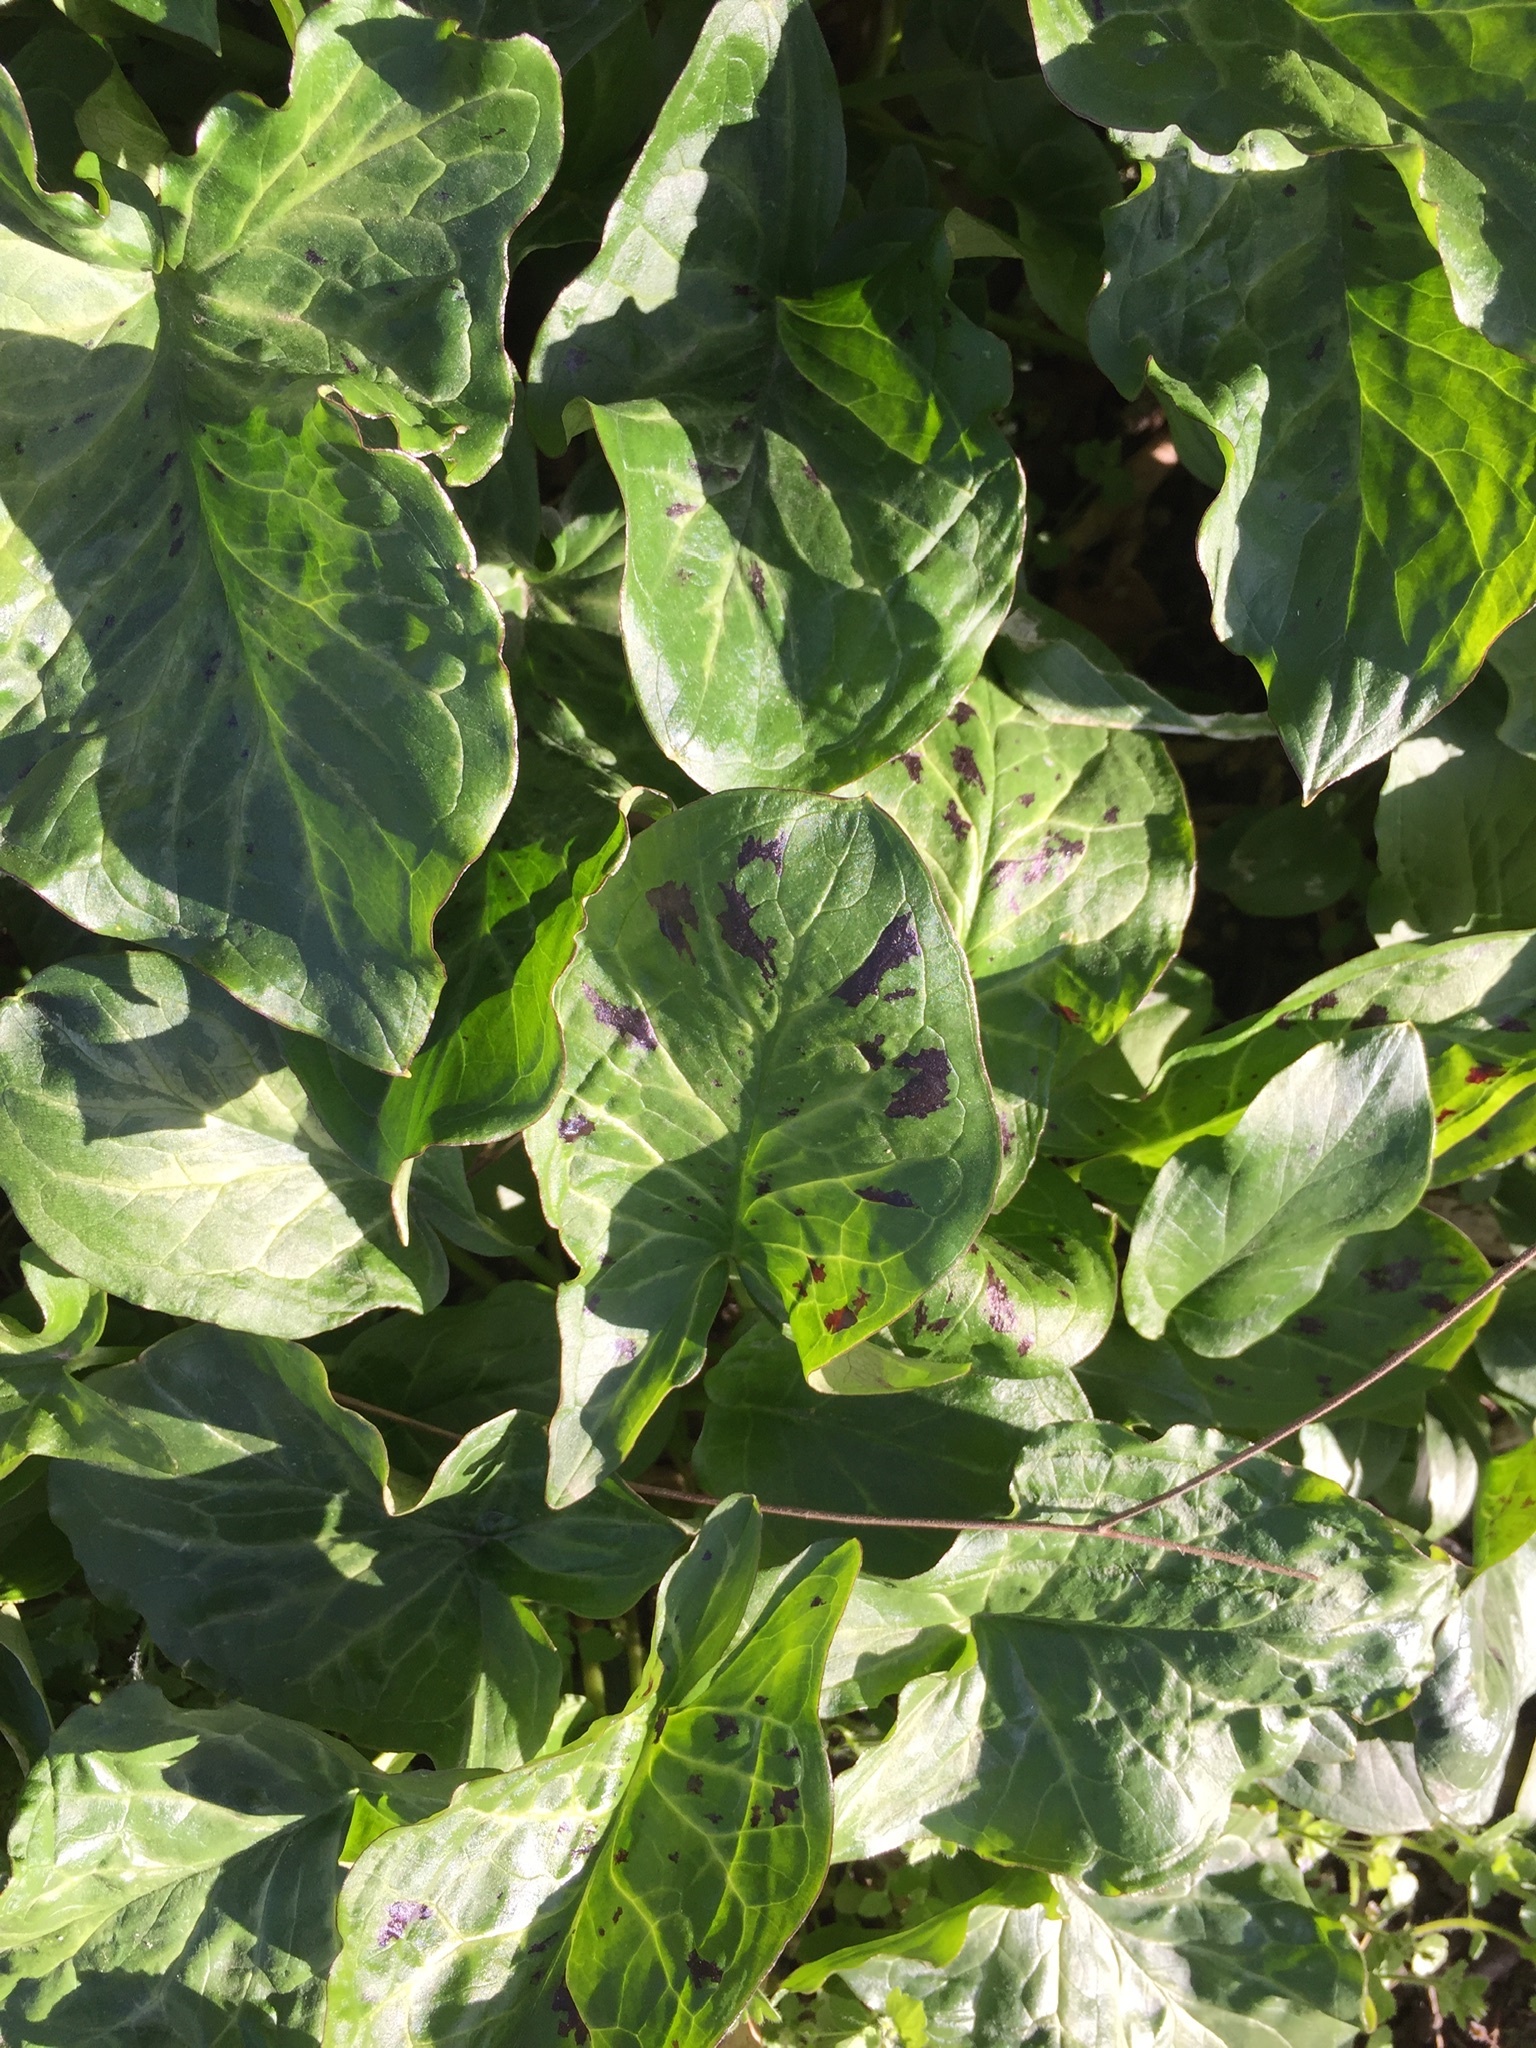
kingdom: Plantae
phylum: Tracheophyta
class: Liliopsida
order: Alismatales
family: Araceae
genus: Arum
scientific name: Arum maculatum
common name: Lords-and-ladies
